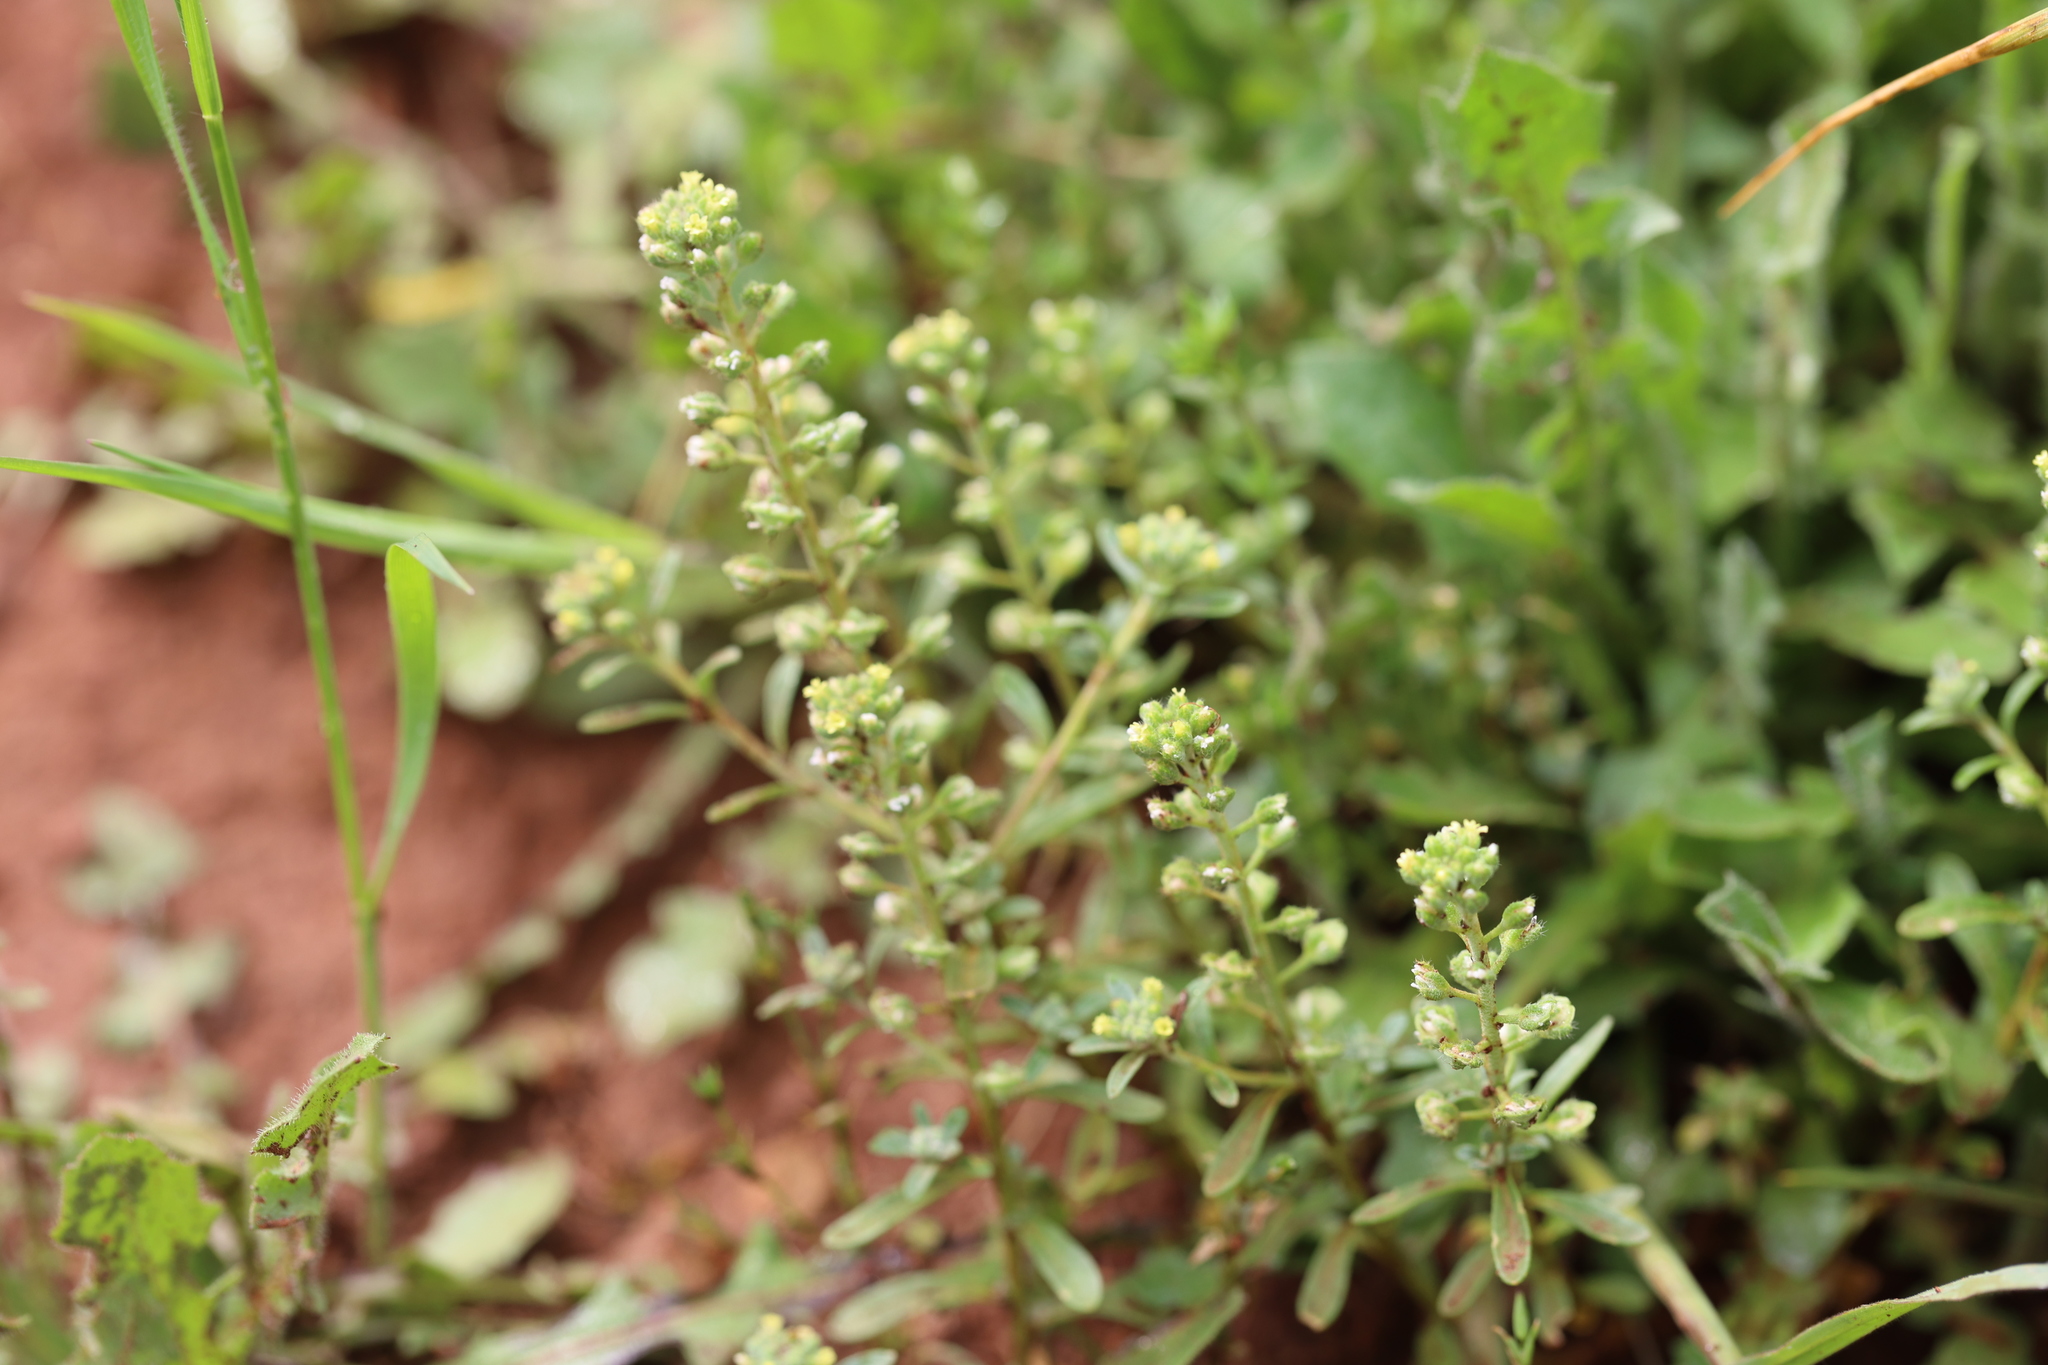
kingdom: Plantae
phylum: Tracheophyta
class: Magnoliopsida
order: Brassicales
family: Brassicaceae
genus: Alyssum
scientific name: Alyssum alyssoides
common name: Small alison
